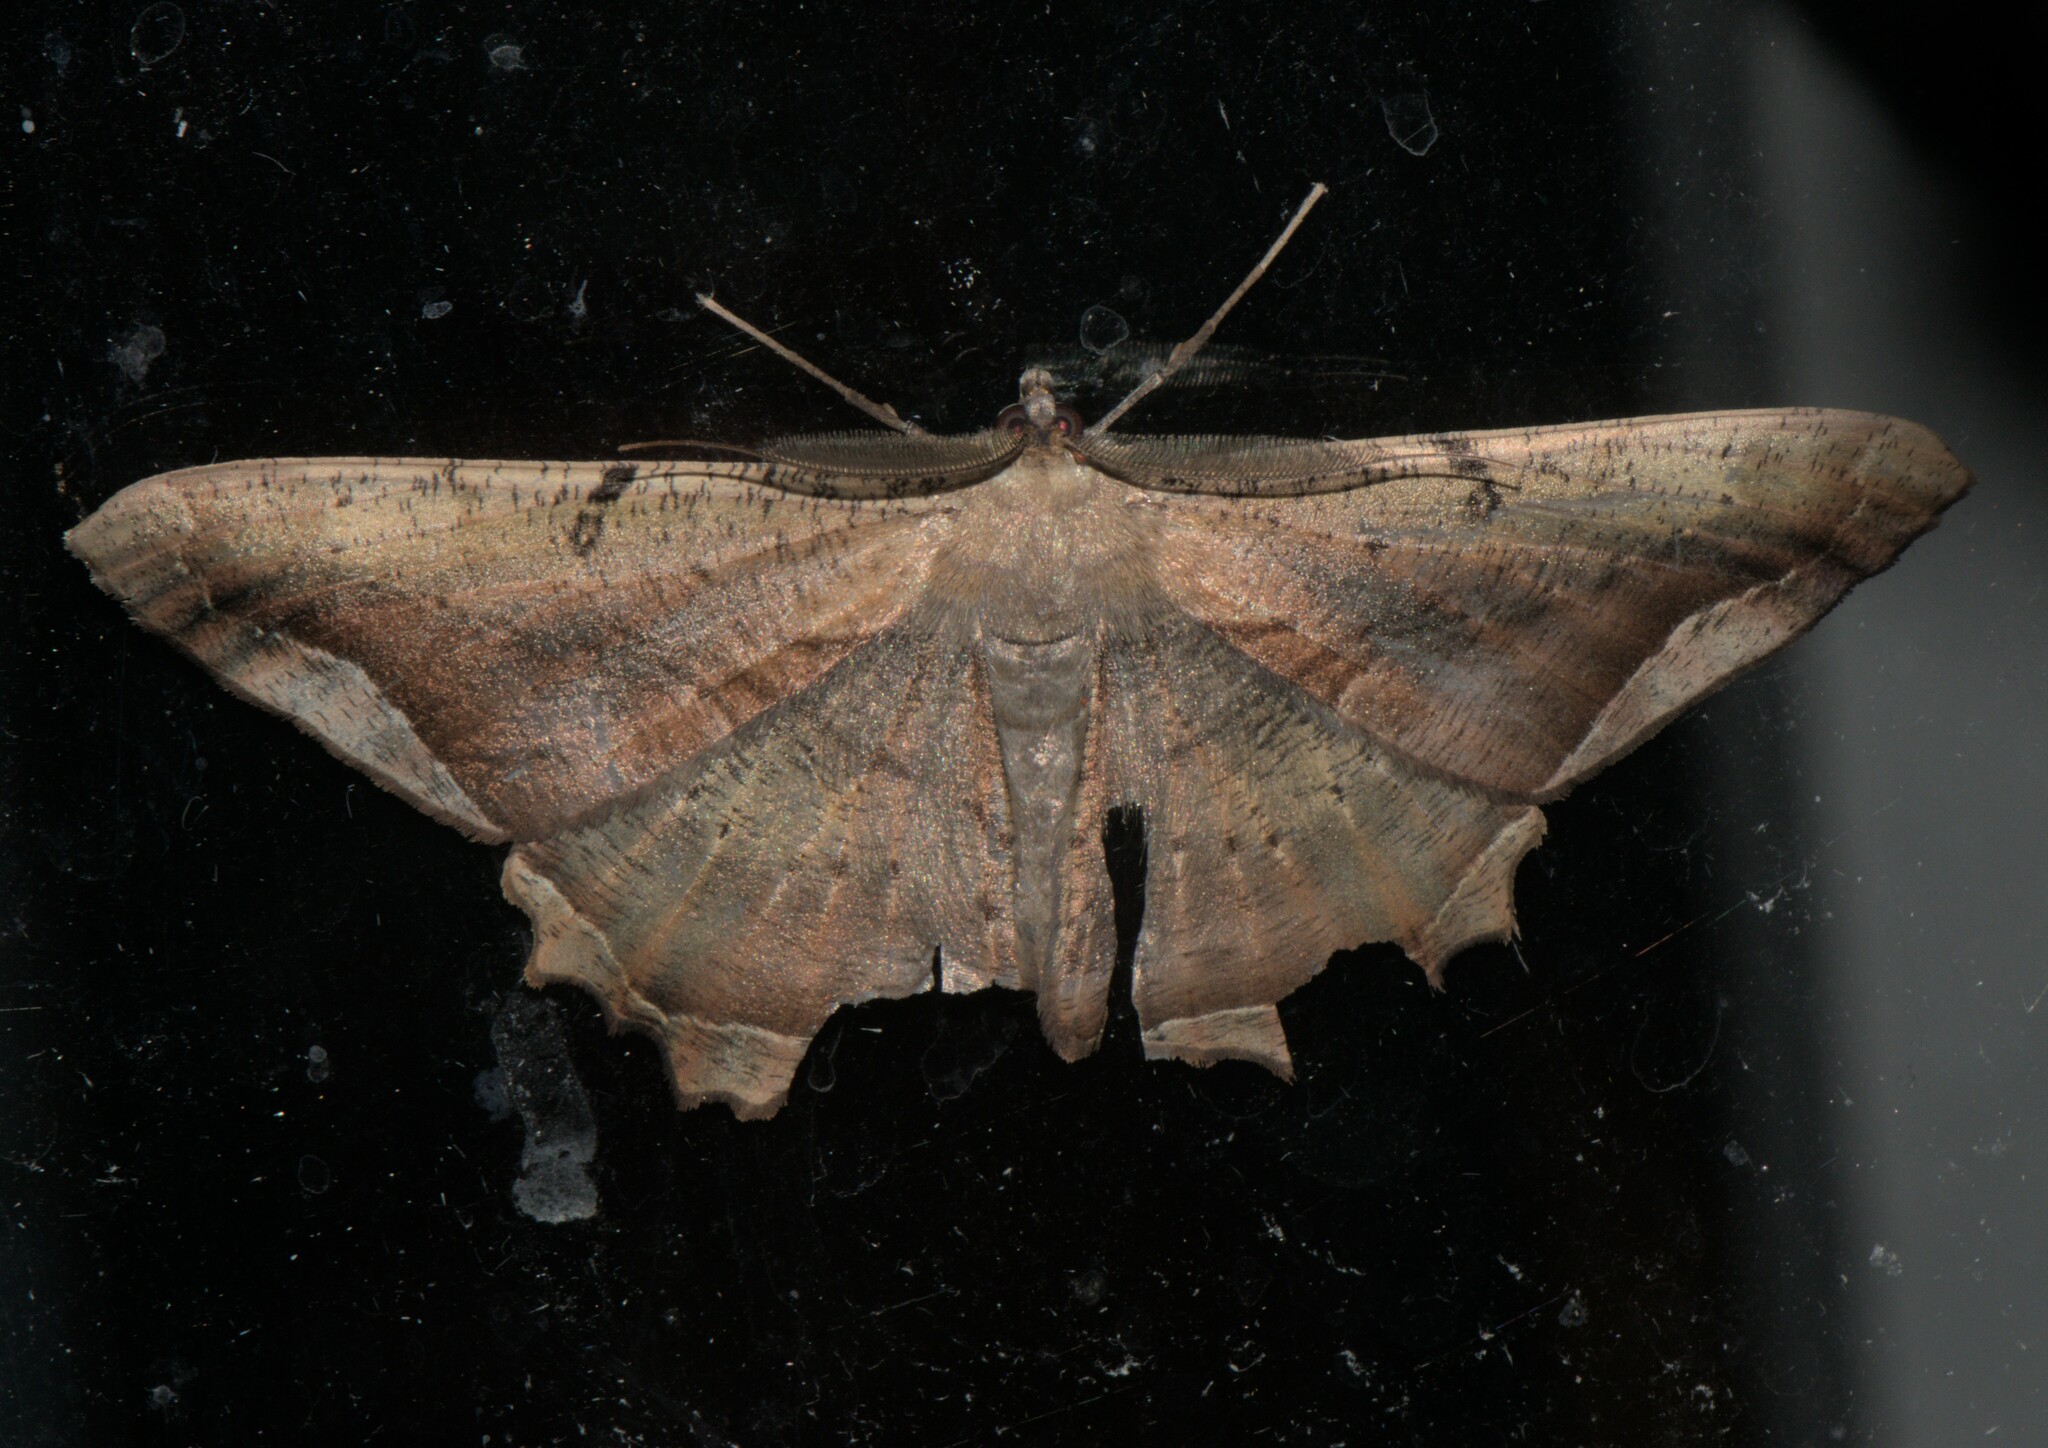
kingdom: Animalia
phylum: Arthropoda
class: Insecta
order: Lepidoptera
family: Geometridae
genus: Chorodna
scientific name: Chorodna adumbrata
